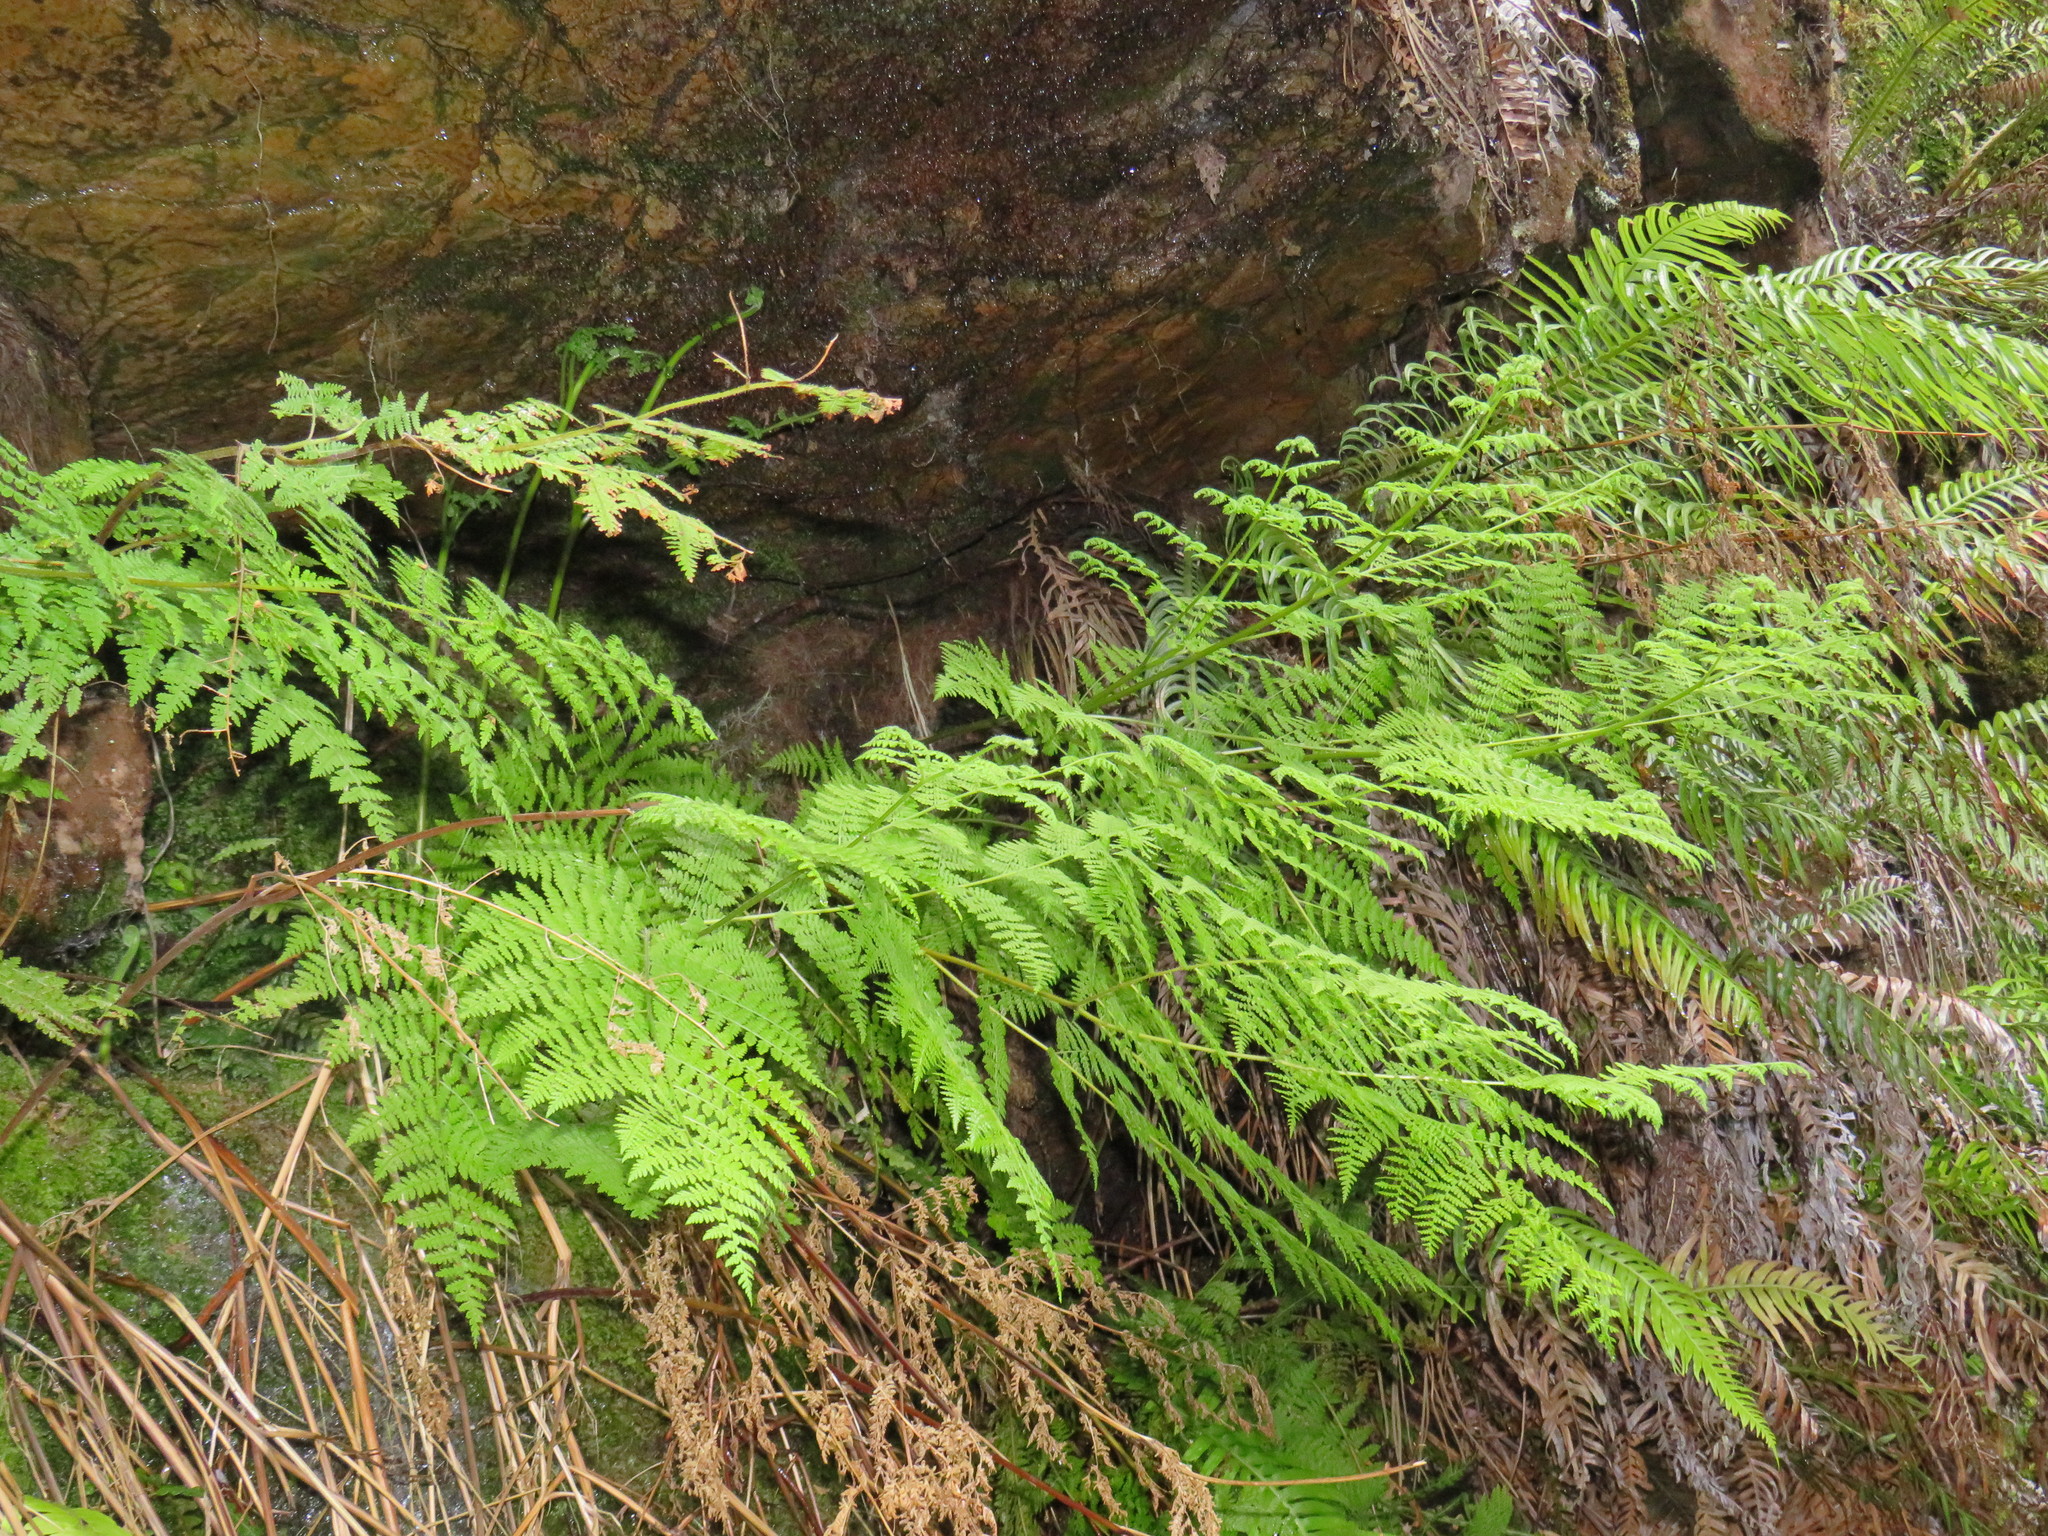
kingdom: Plantae
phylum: Tracheophyta
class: Polypodiopsida
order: Polypodiales
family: Dennstaedtiaceae
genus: Hypolepis
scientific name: Hypolepis sparsisora
